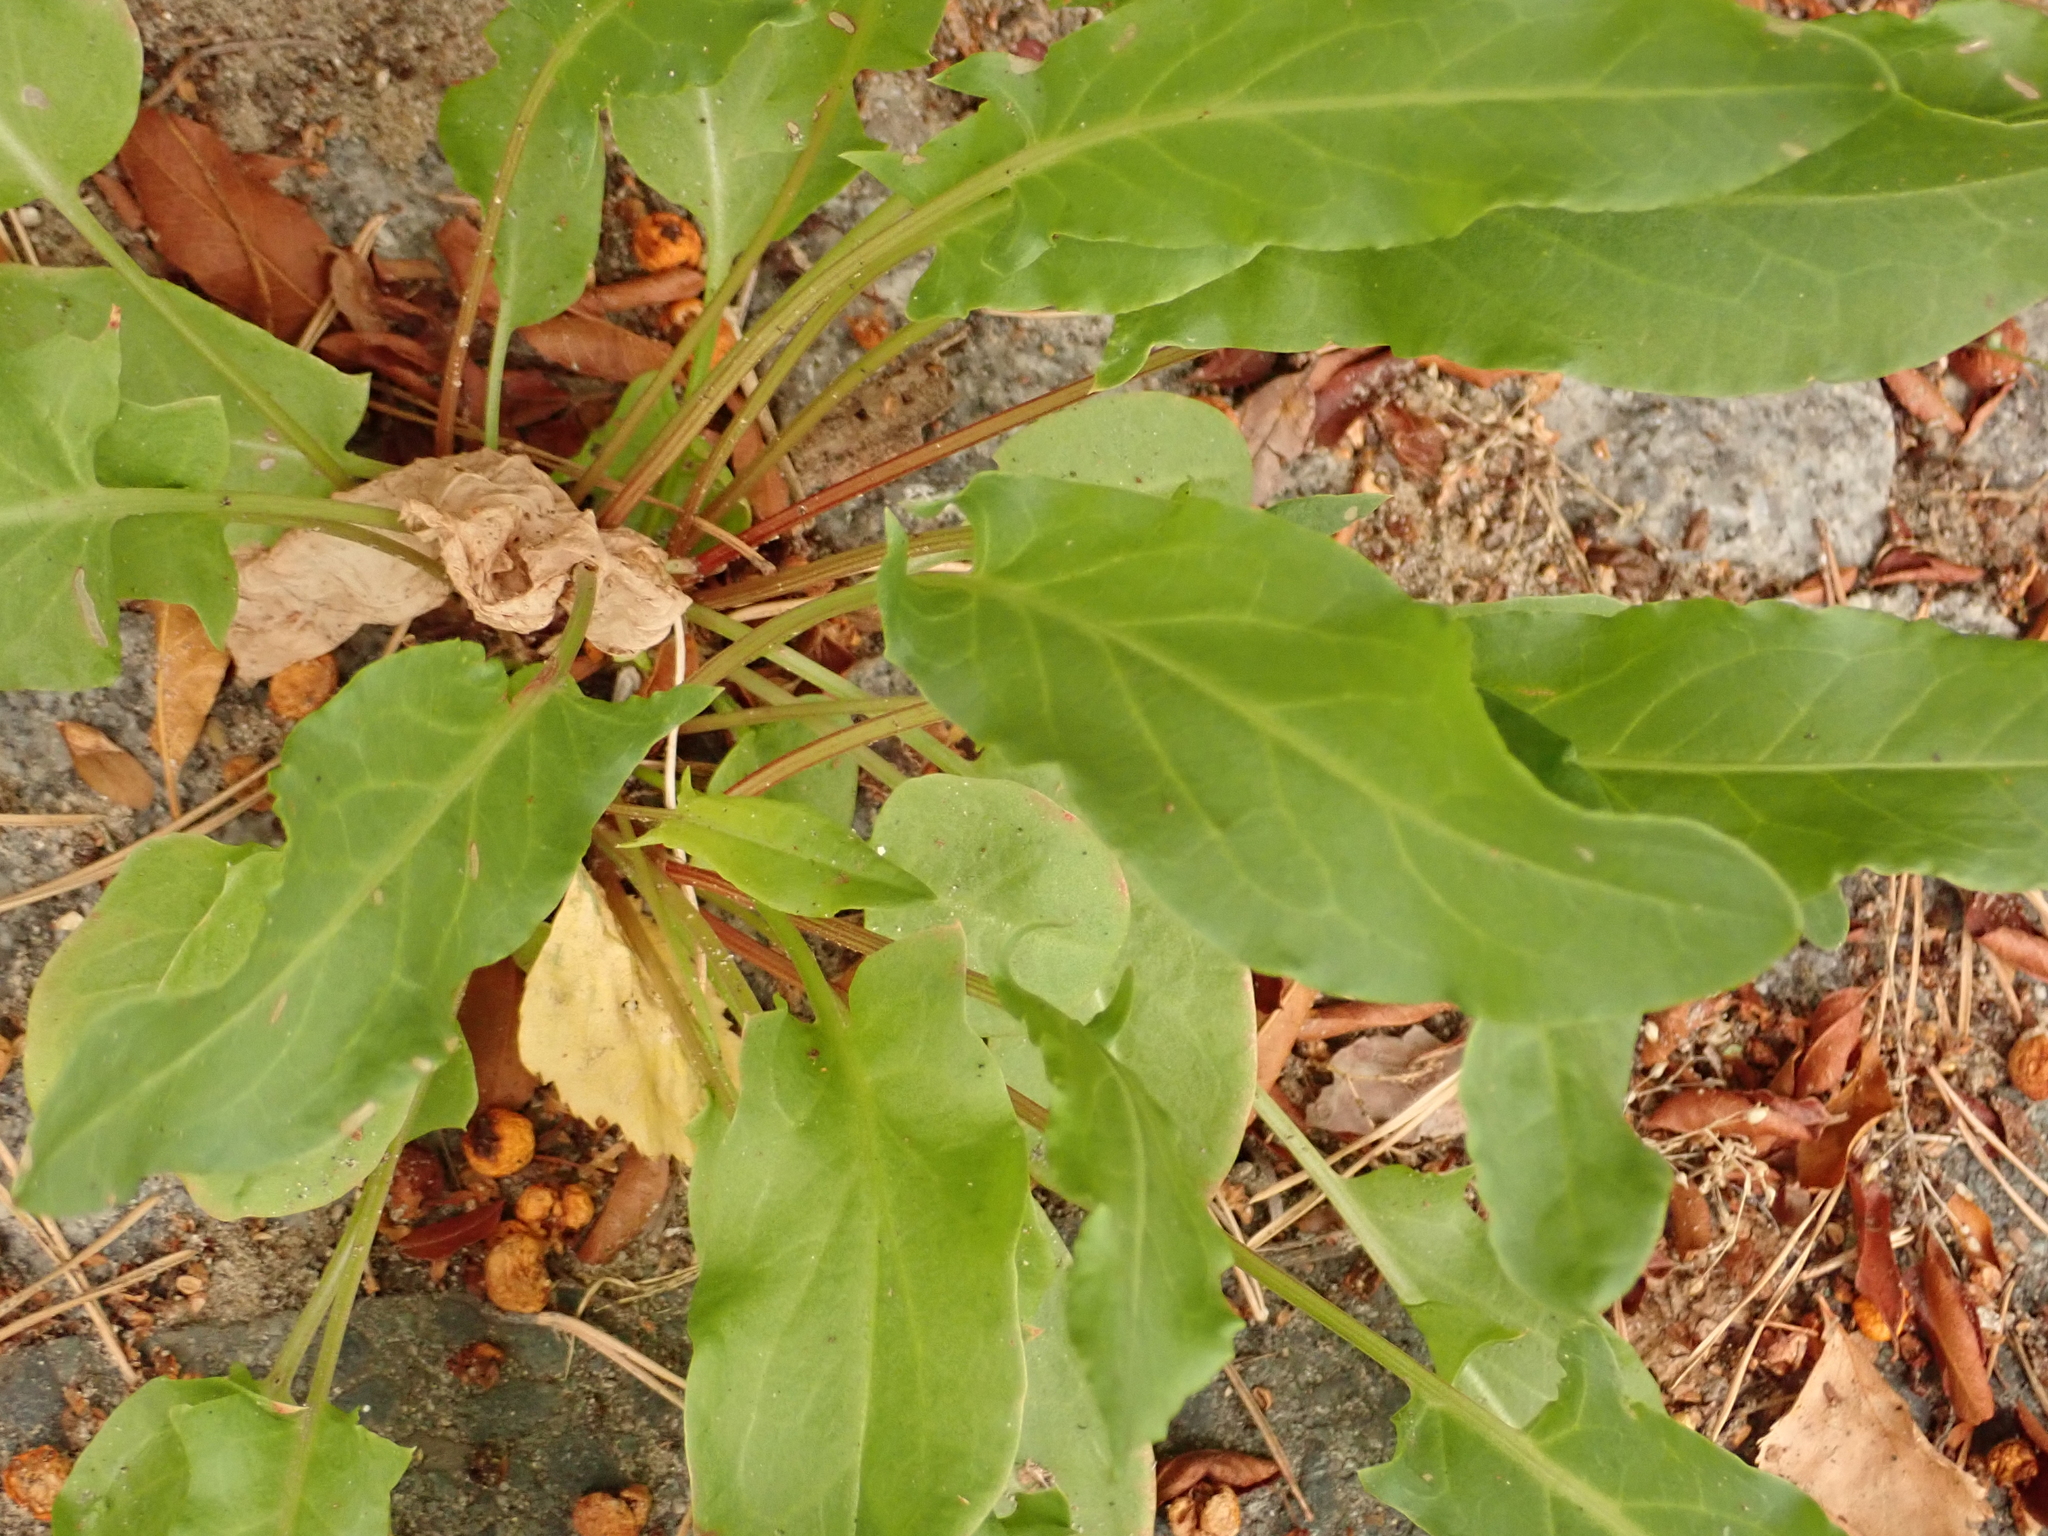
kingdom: Plantae
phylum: Tracheophyta
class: Magnoliopsida
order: Caryophyllales
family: Polygonaceae
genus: Rumex
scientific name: Rumex acetosa
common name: Garden sorrel
